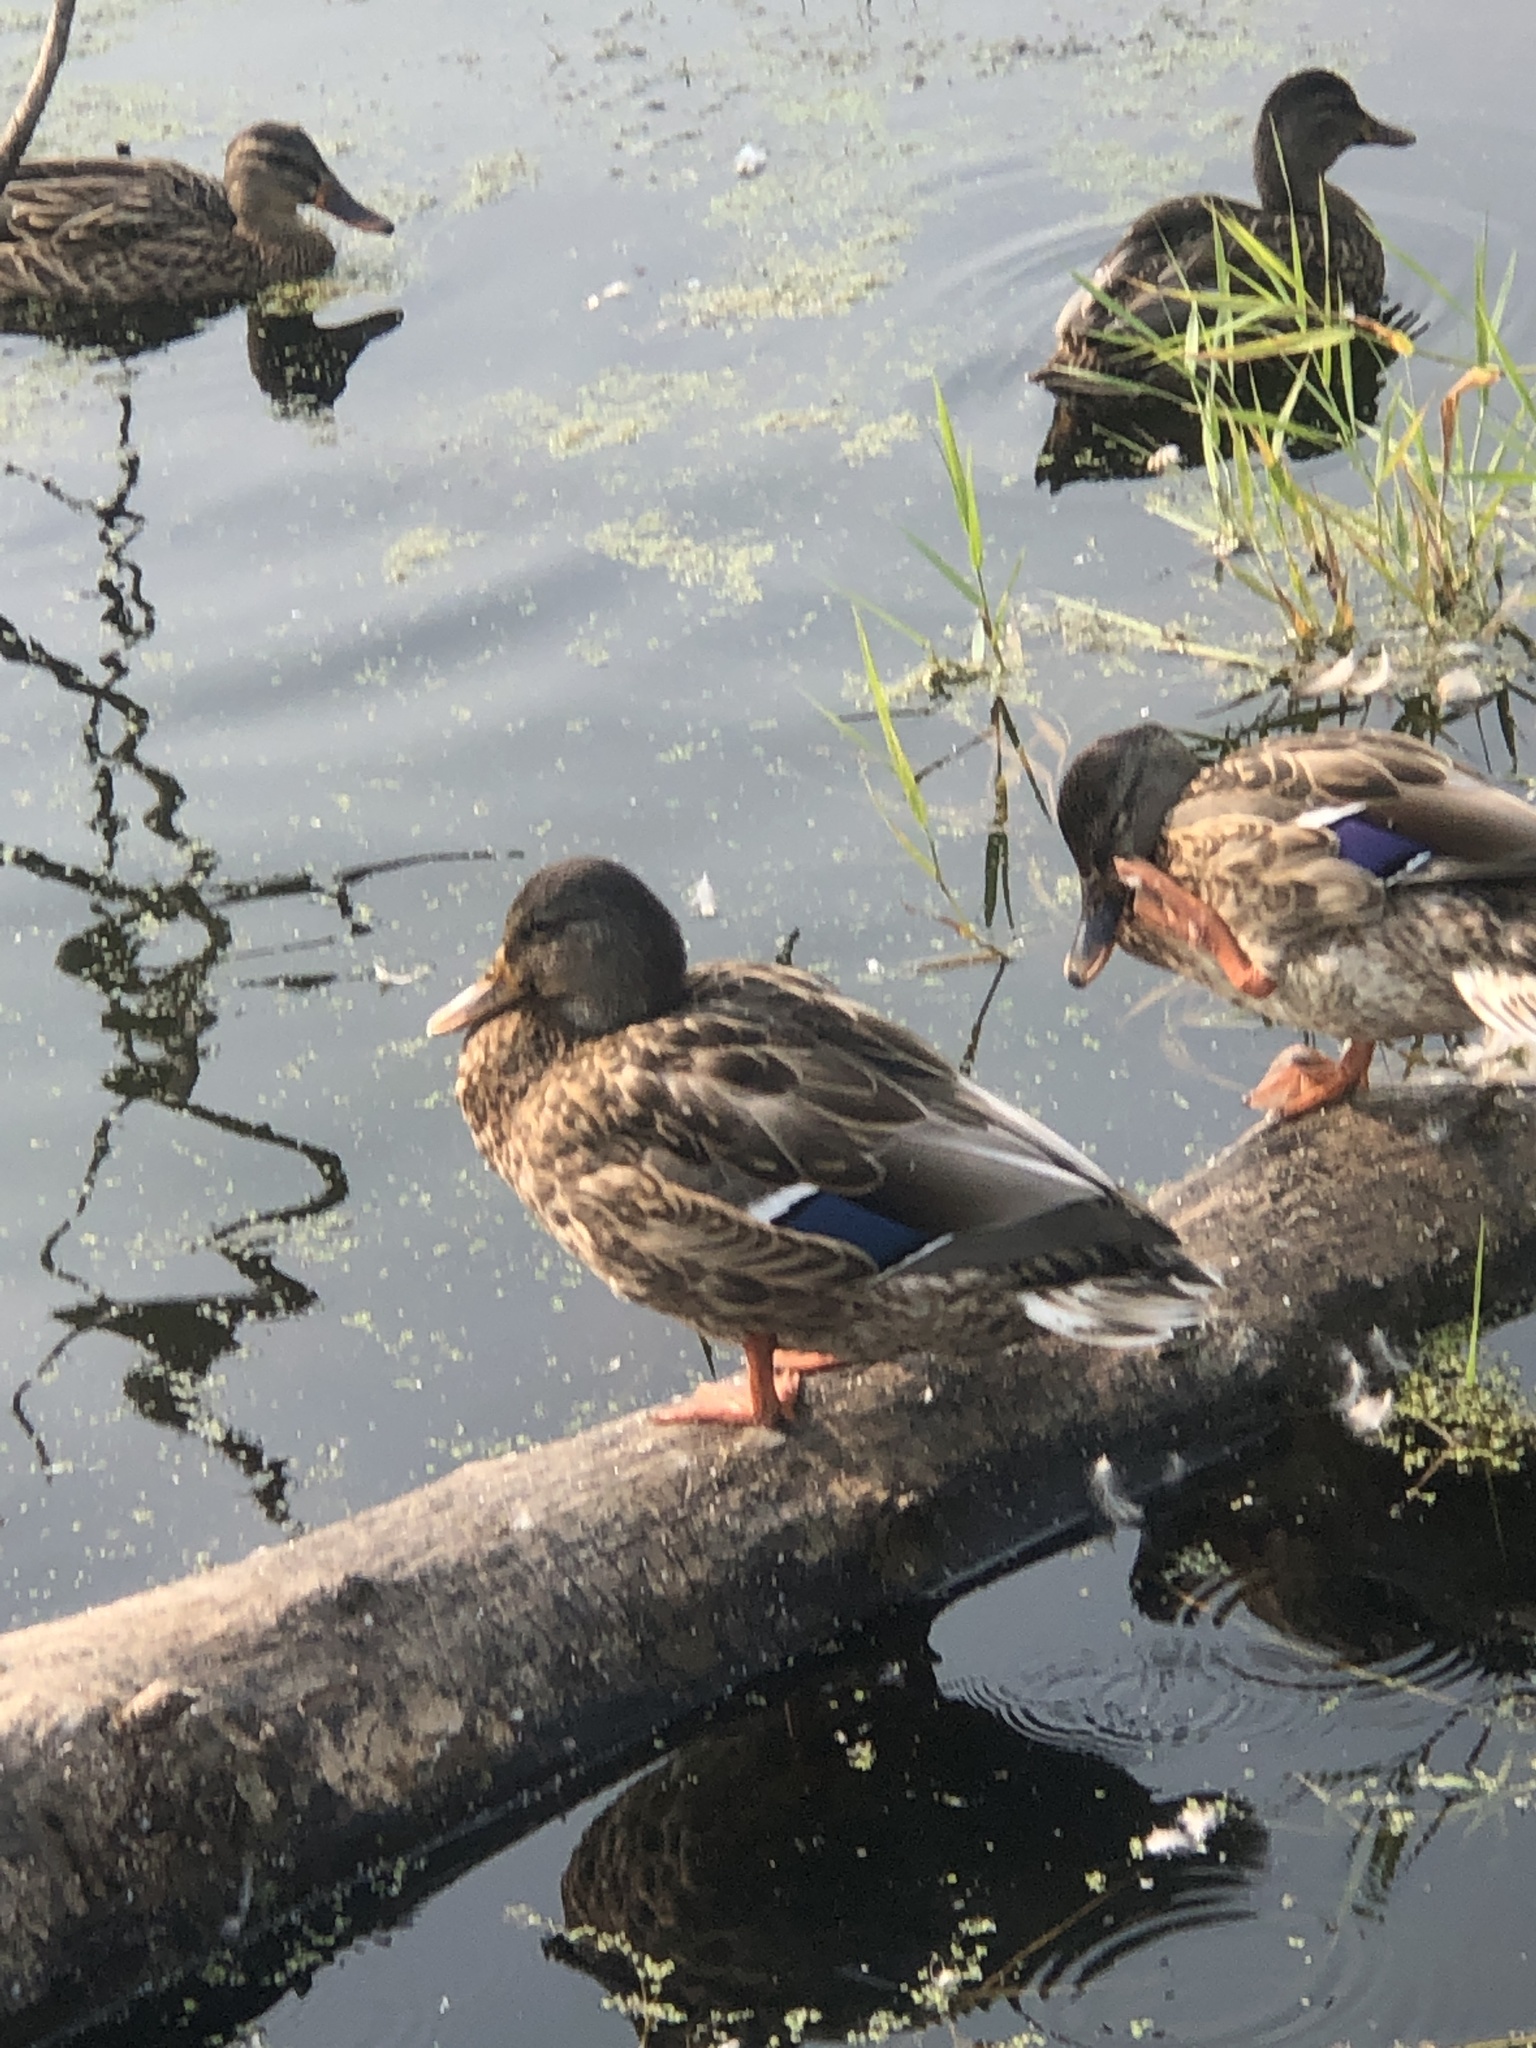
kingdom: Animalia
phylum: Chordata
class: Aves
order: Anseriformes
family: Anatidae
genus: Anas
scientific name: Anas platyrhynchos
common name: Mallard
